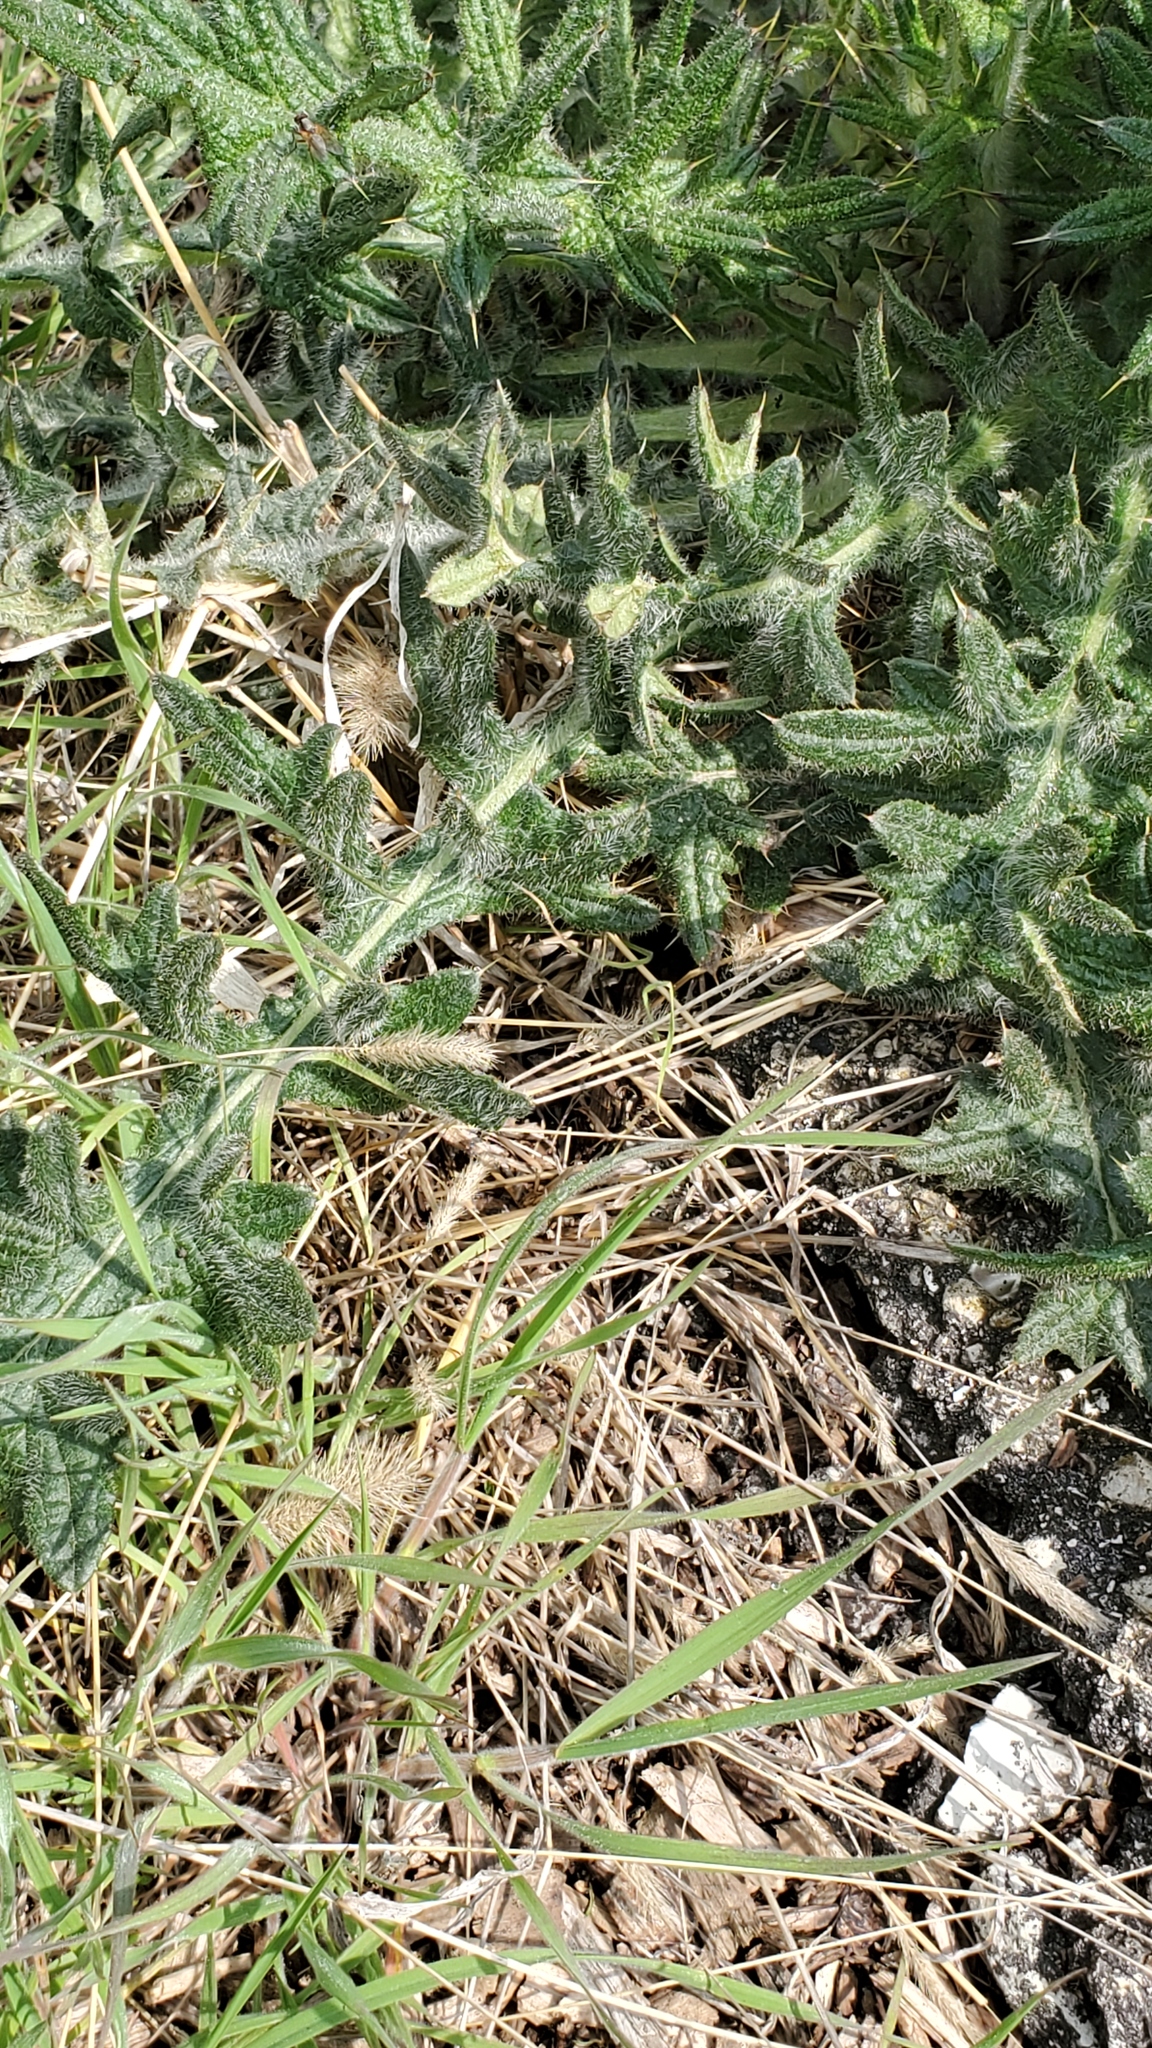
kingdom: Plantae
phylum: Tracheophyta
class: Magnoliopsida
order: Asterales
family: Asteraceae
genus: Cirsium
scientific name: Cirsium vulgare
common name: Bull thistle
